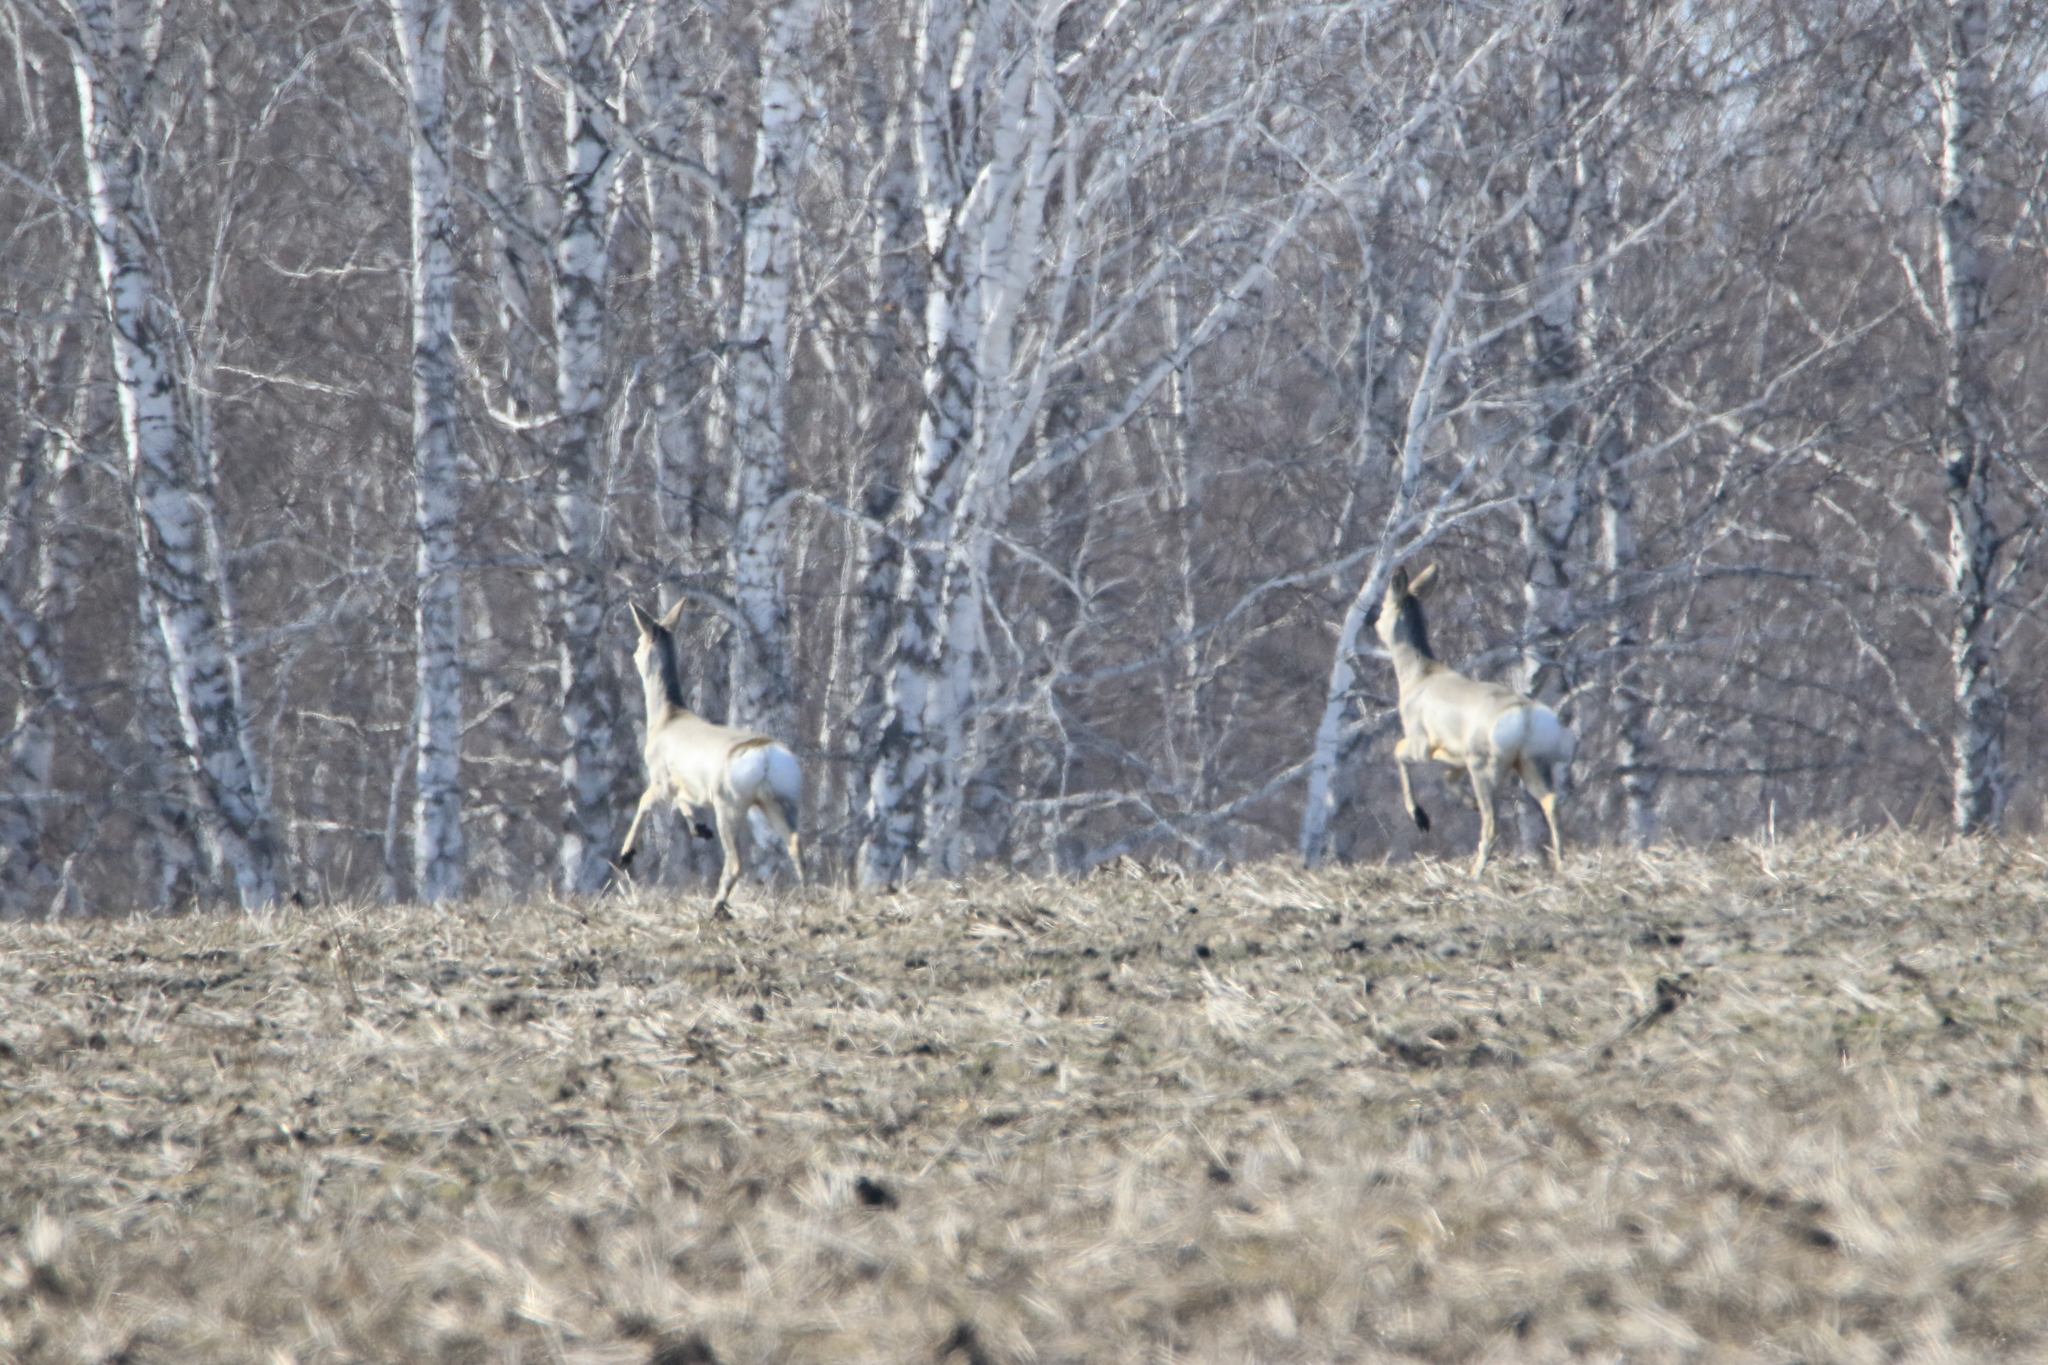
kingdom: Animalia
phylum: Chordata
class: Mammalia
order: Artiodactyla
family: Cervidae
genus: Capreolus
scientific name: Capreolus pygargus
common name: Siberian roe
